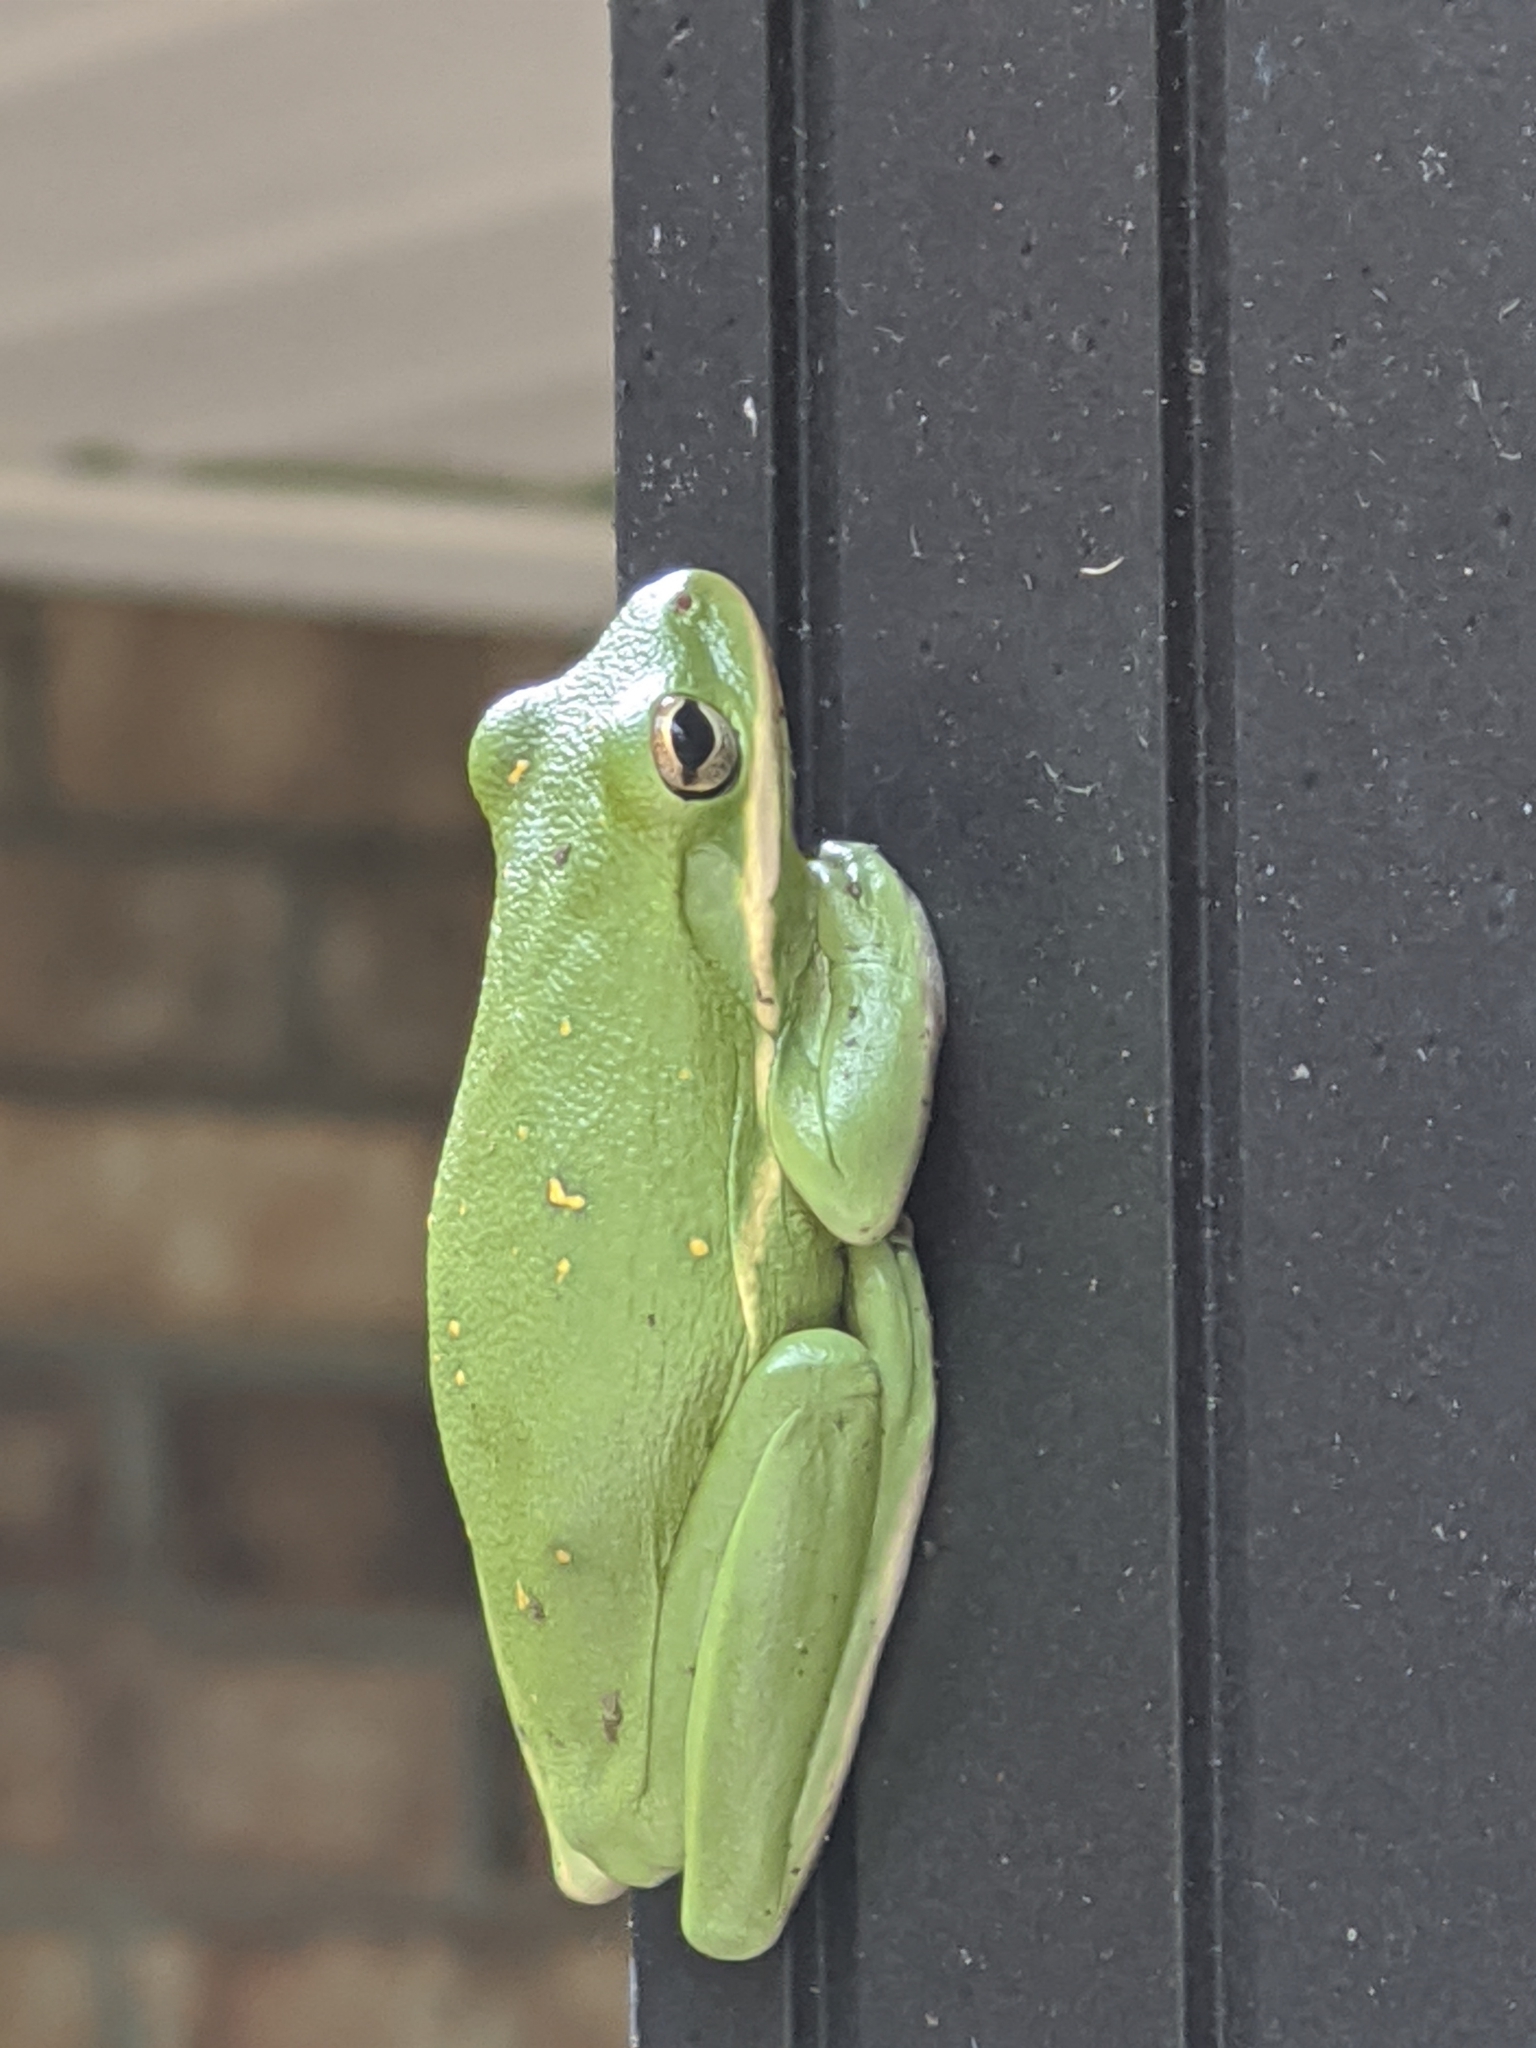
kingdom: Animalia
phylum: Chordata
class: Amphibia
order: Anura
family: Hylidae
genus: Dryophytes
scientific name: Dryophytes cinereus
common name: Green treefrog
